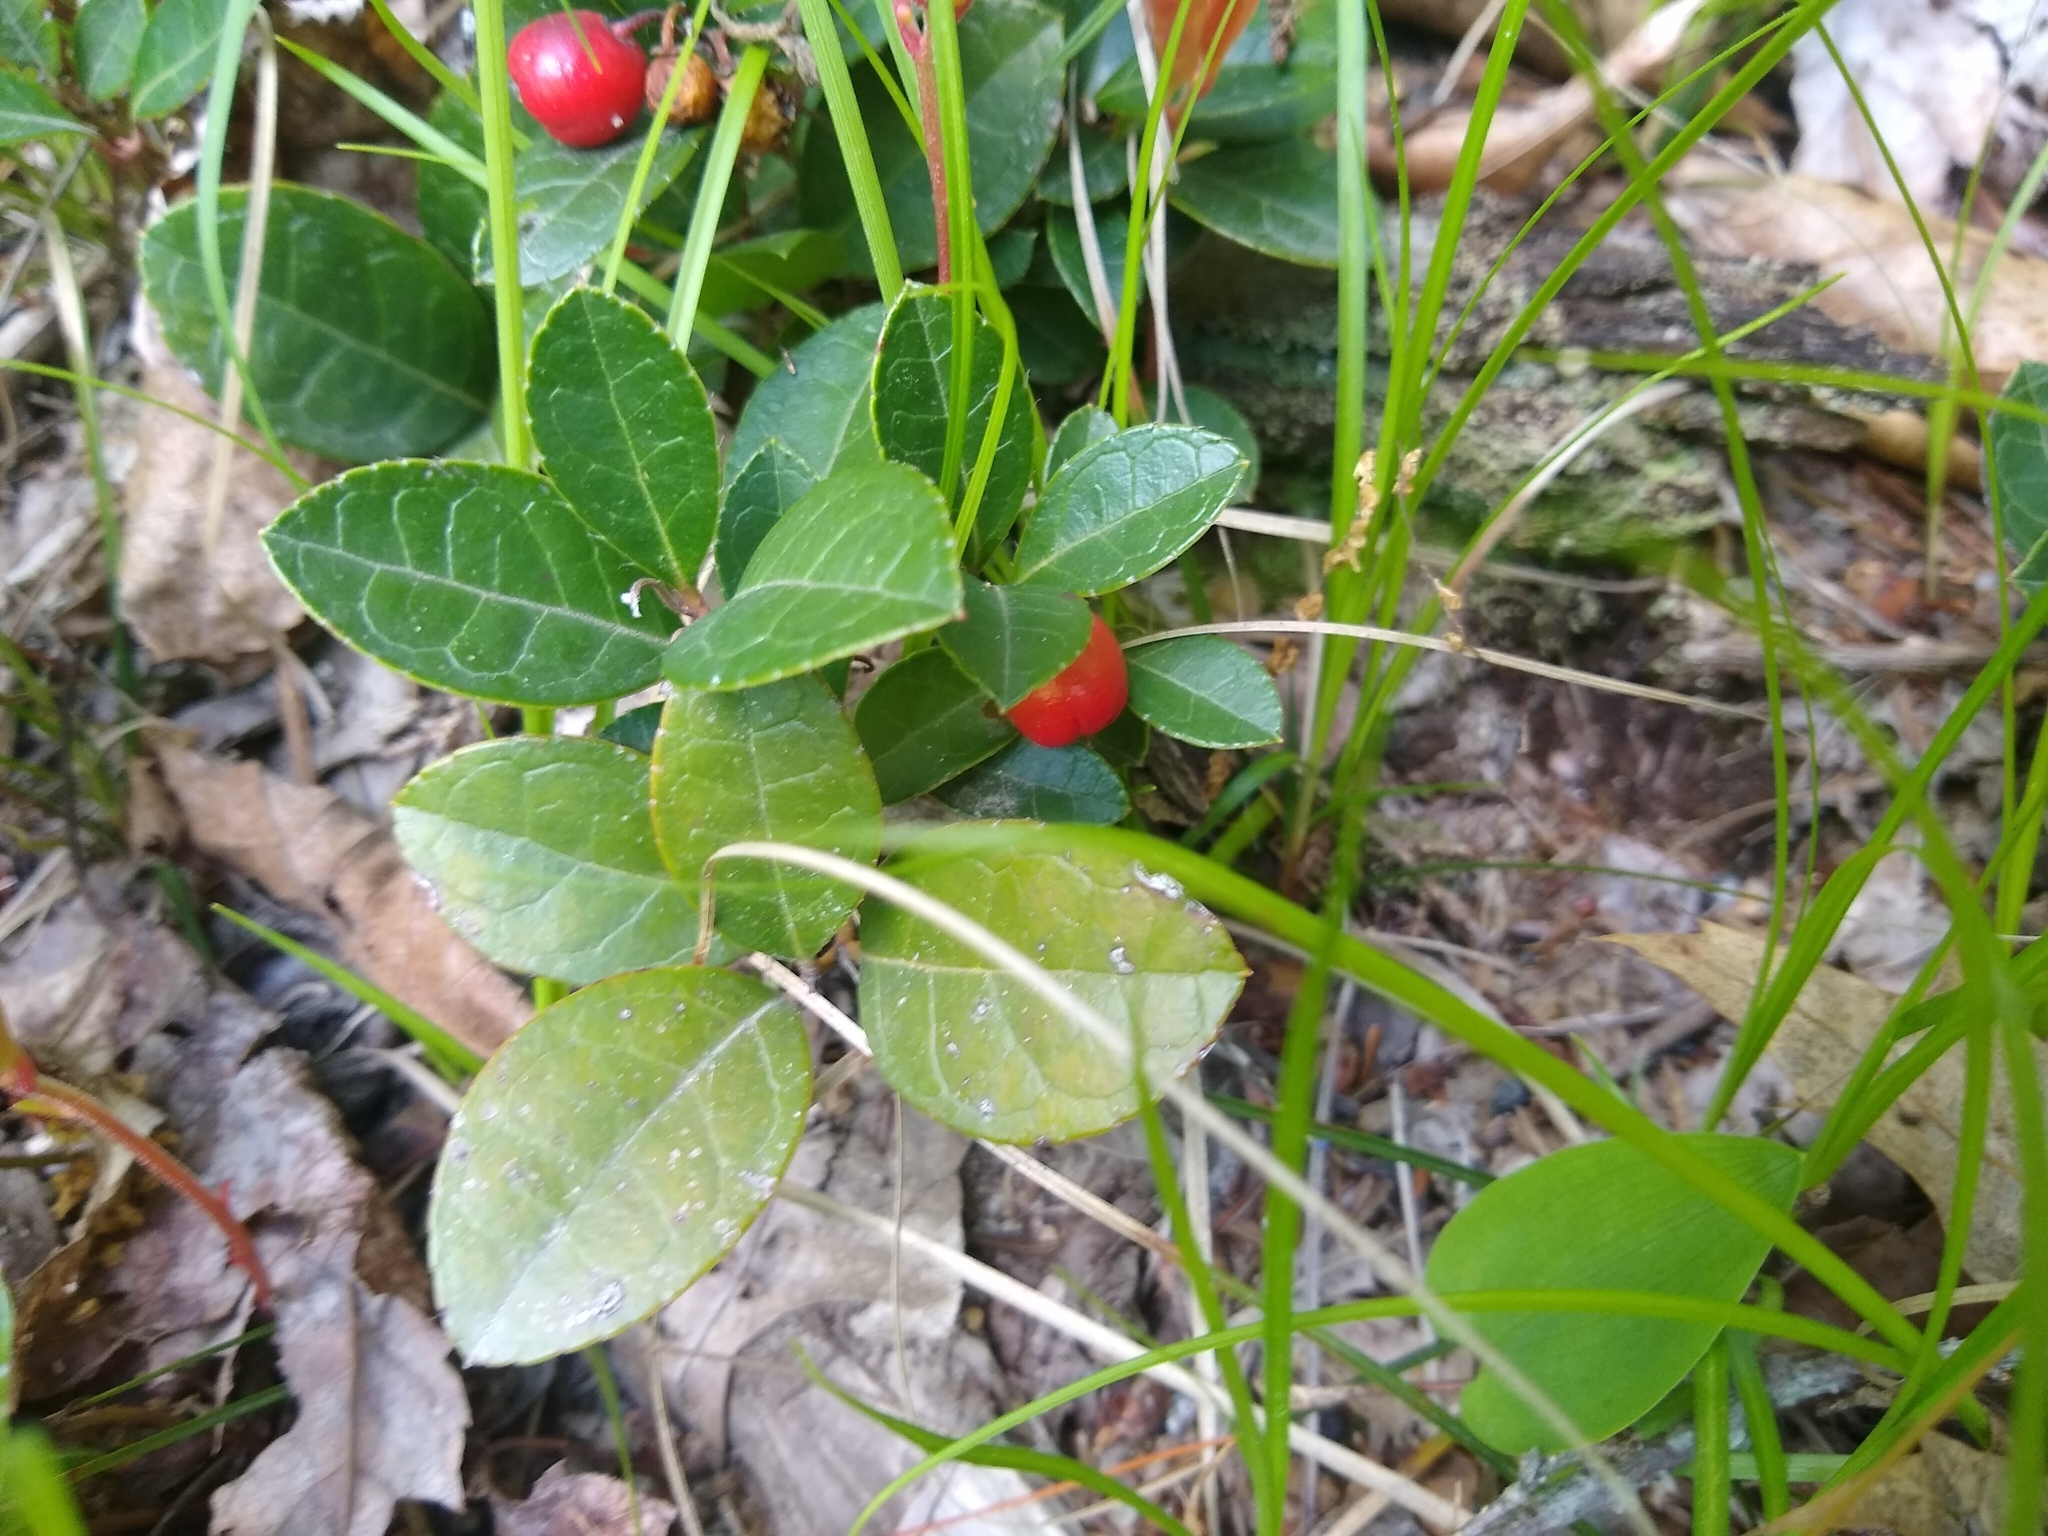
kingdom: Plantae
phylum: Tracheophyta
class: Magnoliopsida
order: Ericales
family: Ericaceae
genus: Gaultheria
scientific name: Gaultheria procumbens
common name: Checkerberry
